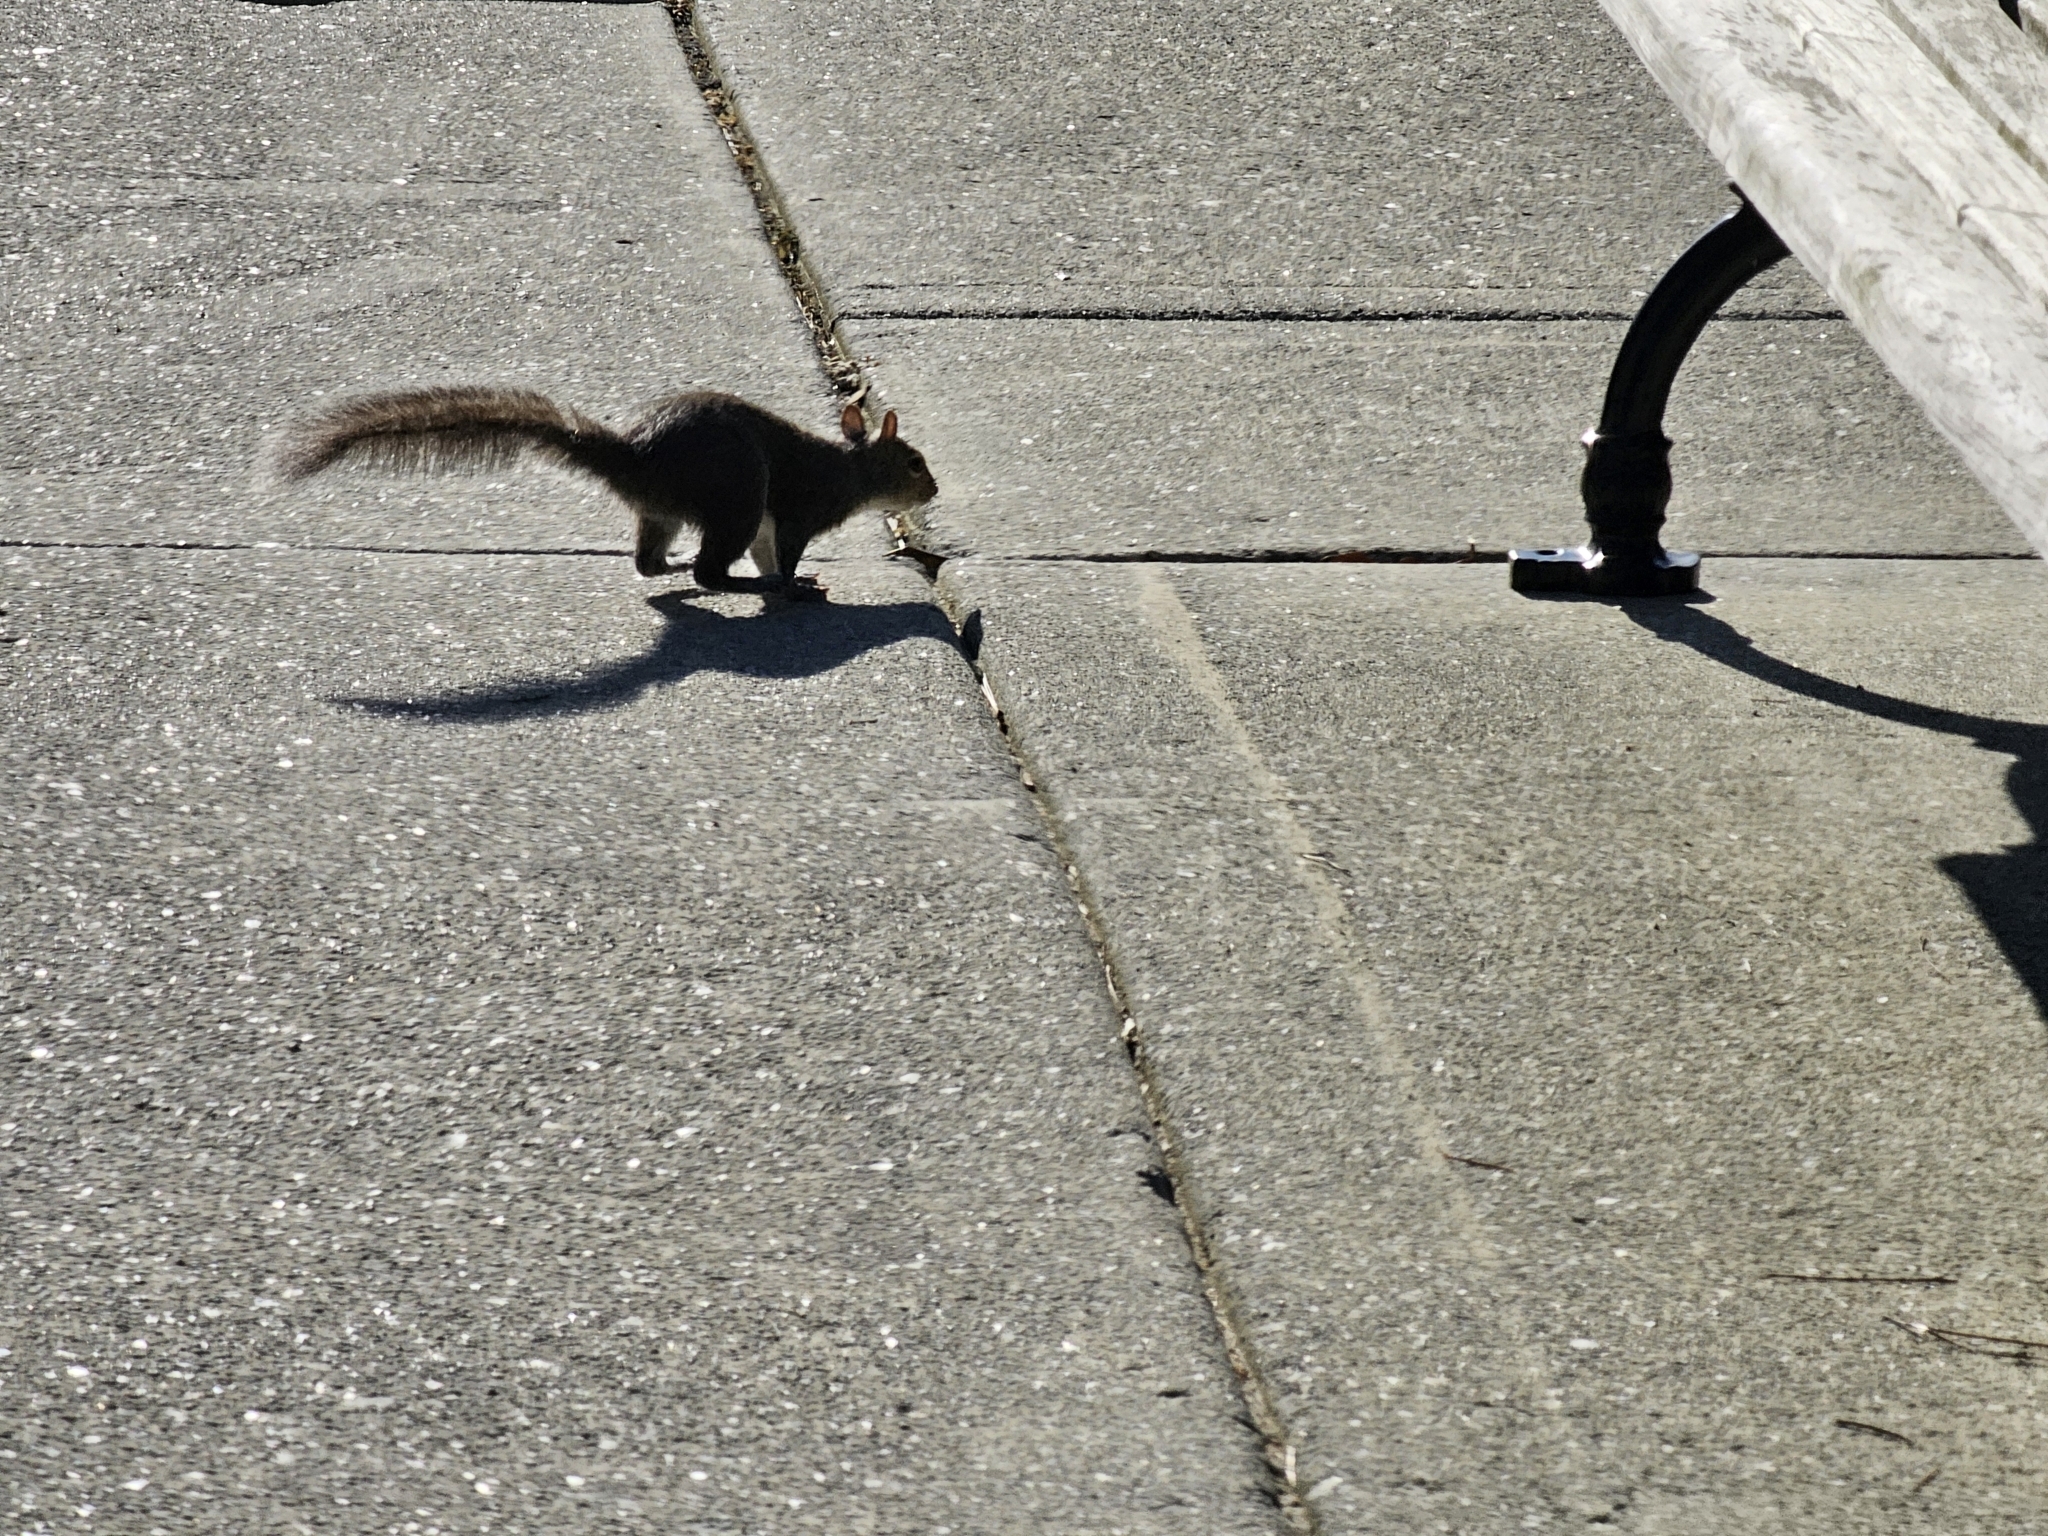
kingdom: Animalia
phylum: Chordata
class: Mammalia
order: Rodentia
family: Sciuridae
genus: Sciurus
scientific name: Sciurus carolinensis
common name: Eastern gray squirrel
